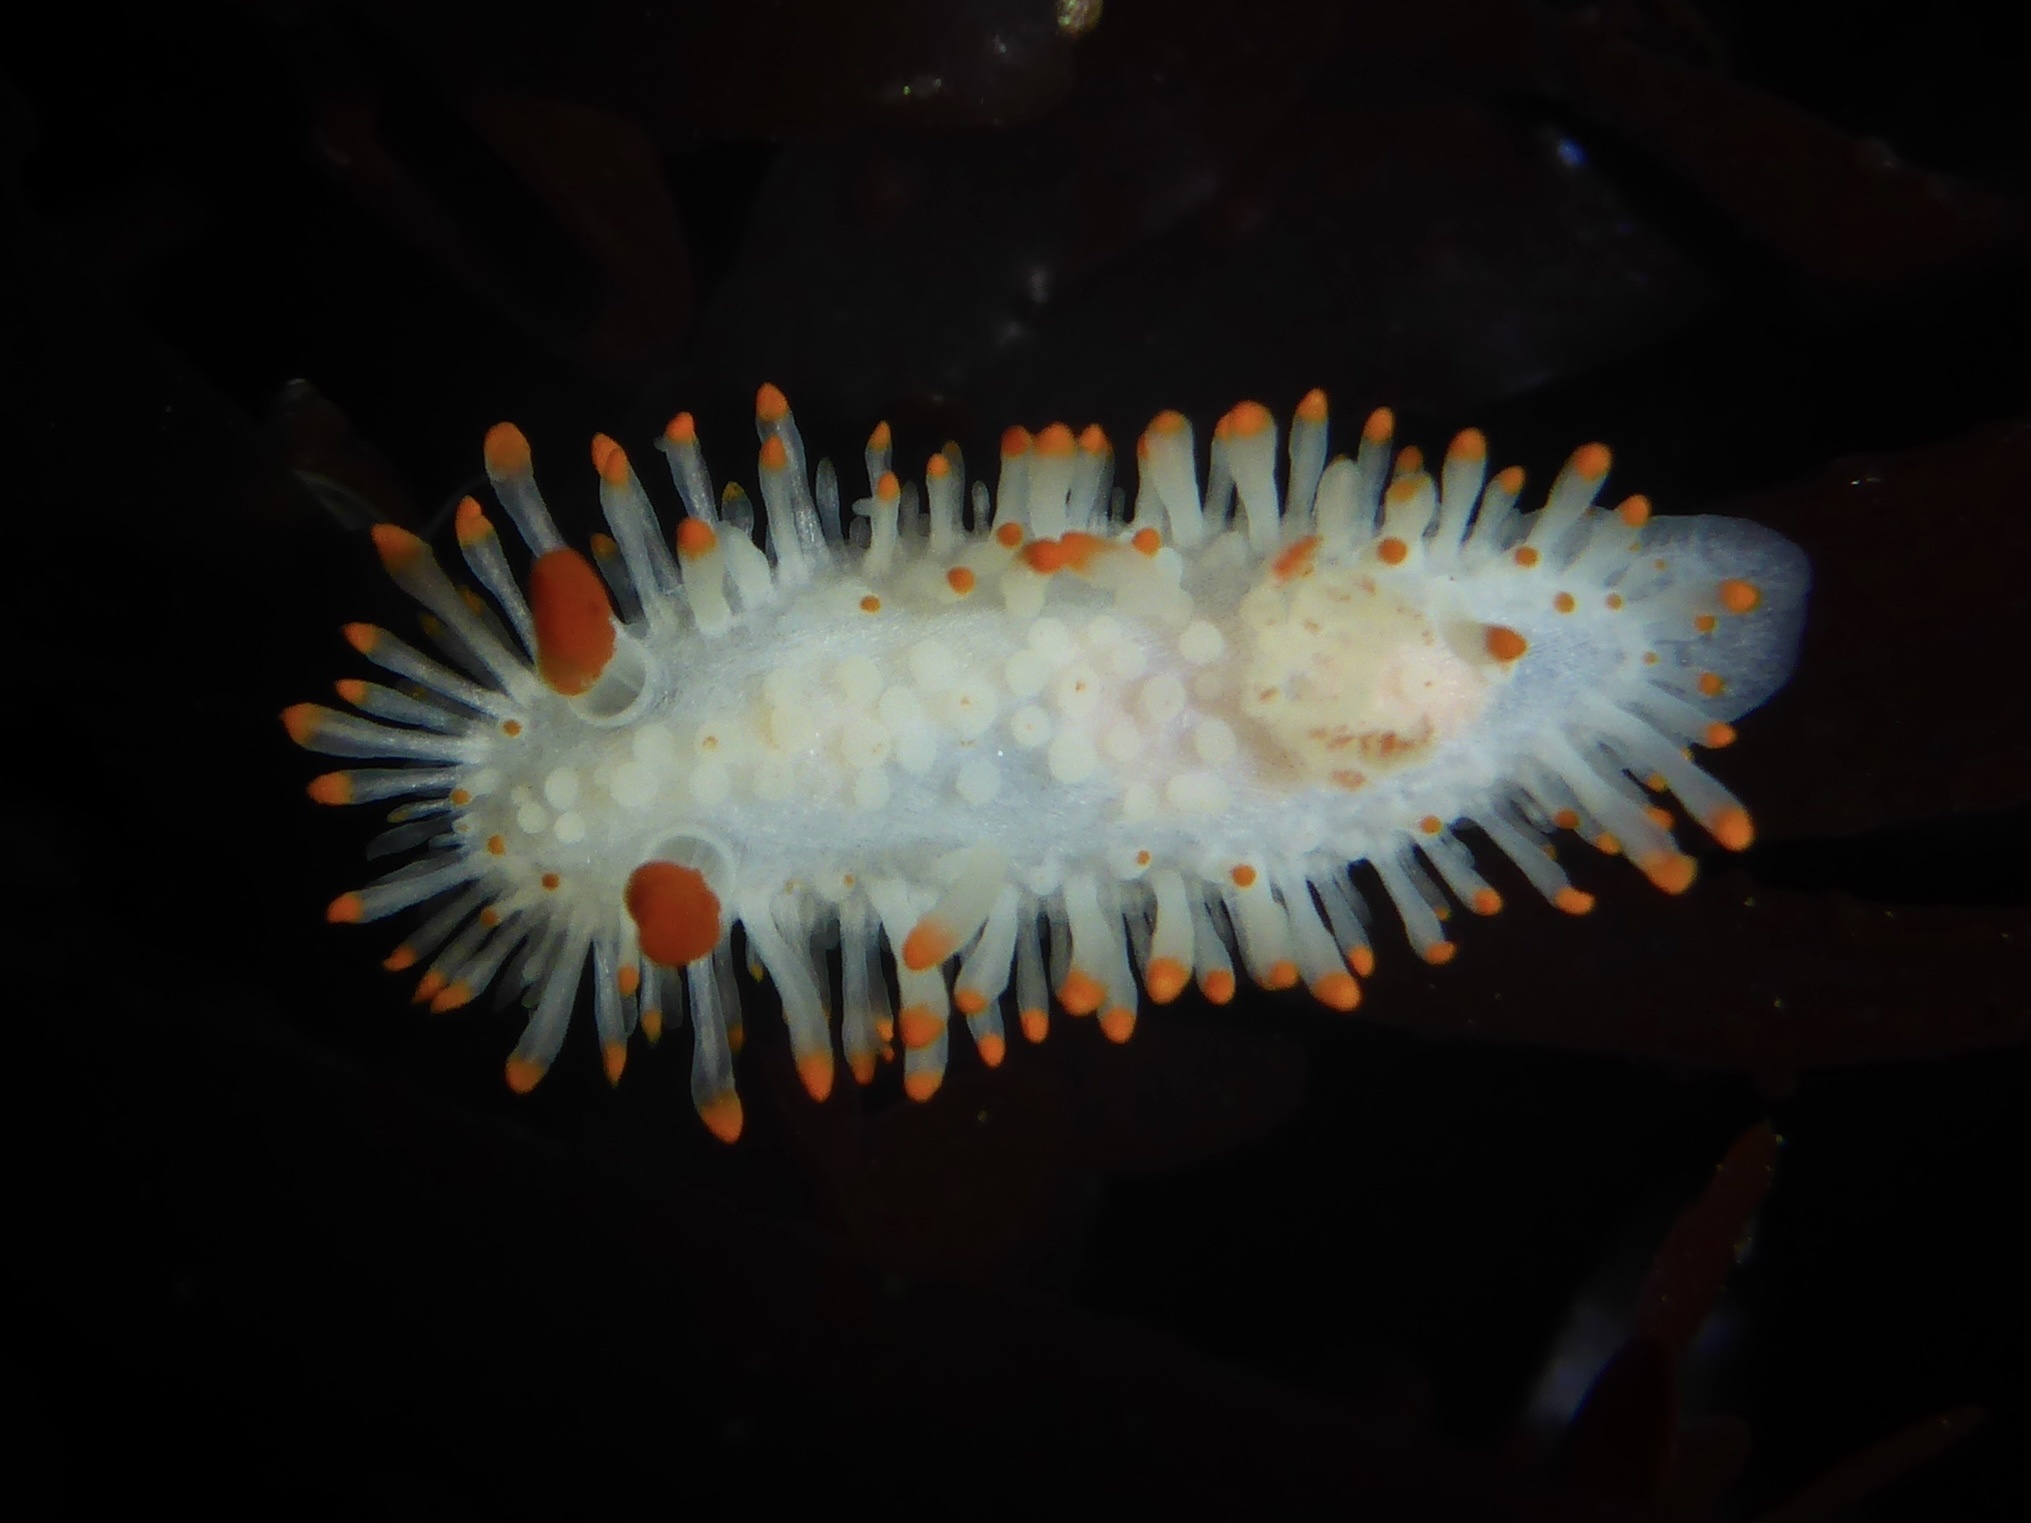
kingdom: Animalia
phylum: Mollusca
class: Gastropoda
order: Nudibranchia
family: Polyceridae
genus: Limacia
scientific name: Limacia cockerelli
